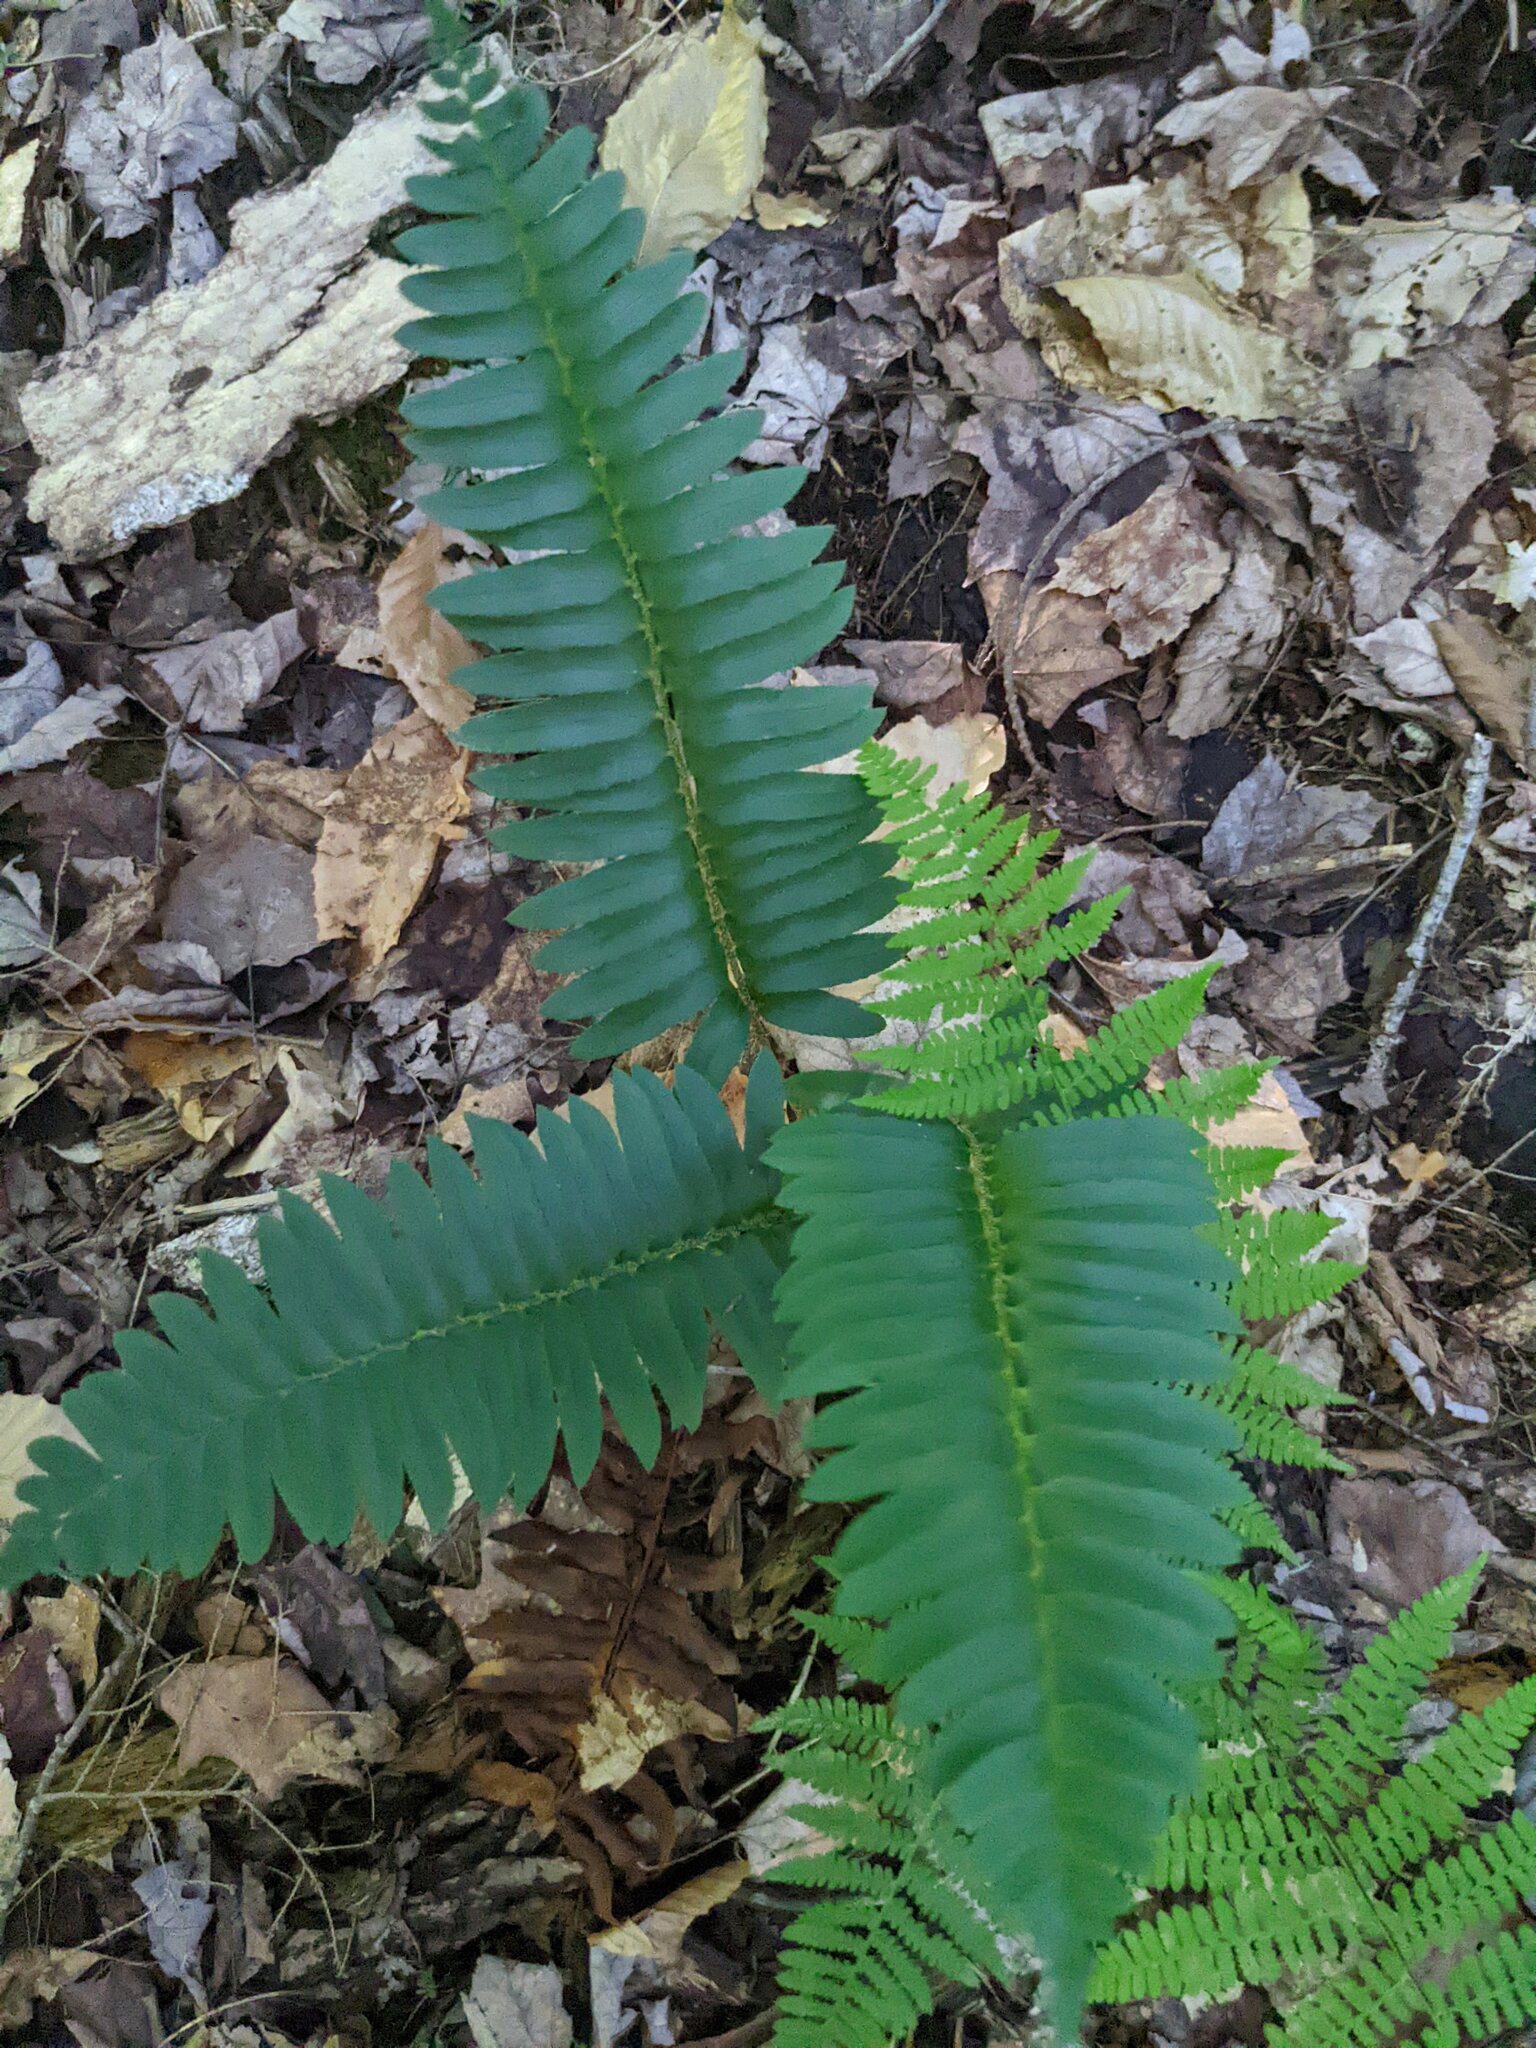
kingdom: Plantae
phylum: Tracheophyta
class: Polypodiopsida
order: Polypodiales
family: Dryopteridaceae
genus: Polystichum
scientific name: Polystichum acrostichoides
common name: Christmas fern
